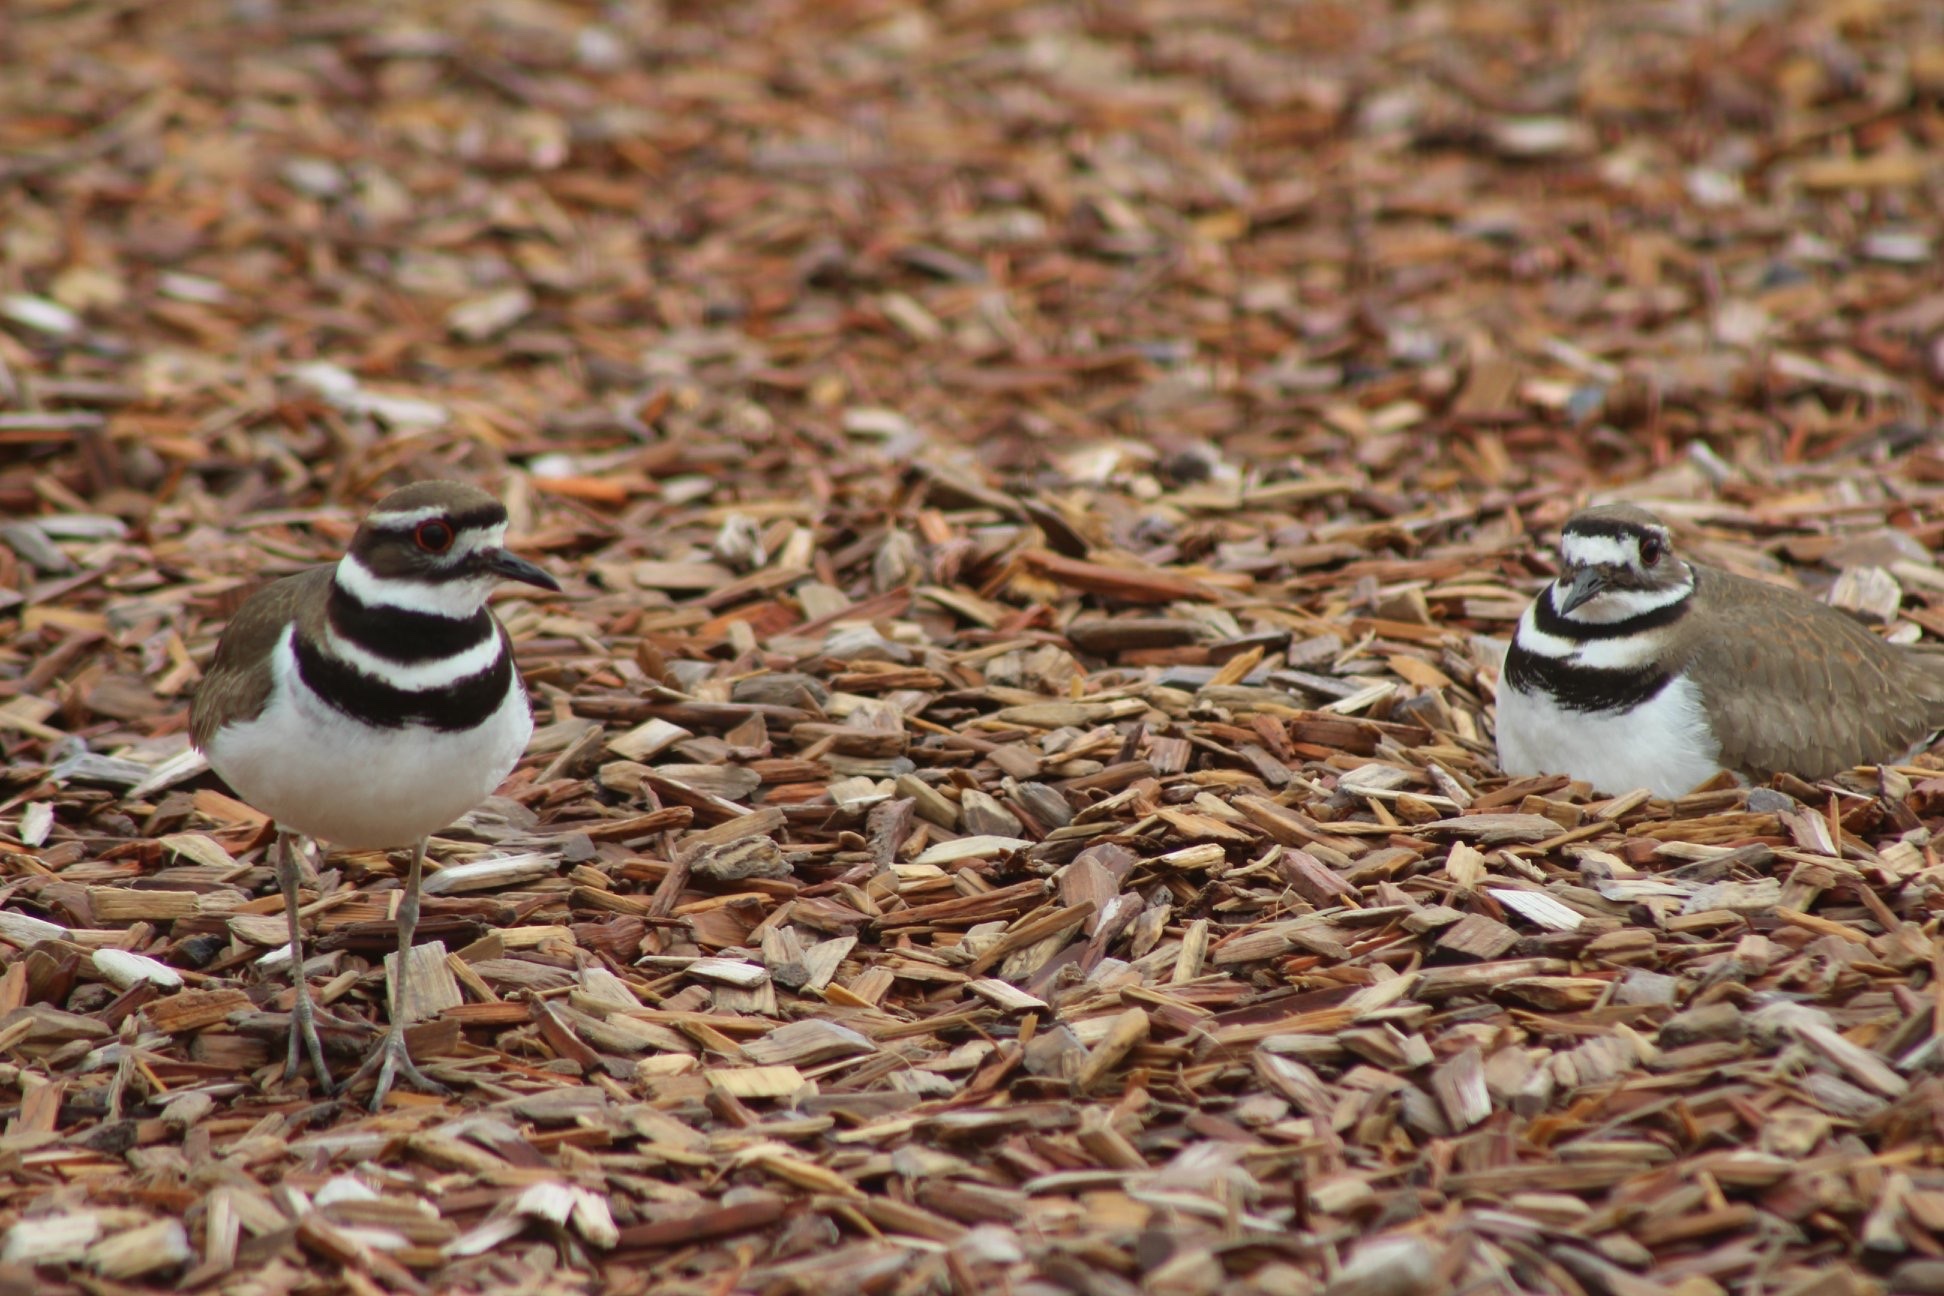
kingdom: Animalia
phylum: Chordata
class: Aves
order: Charadriiformes
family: Charadriidae
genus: Charadrius
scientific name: Charadrius vociferus
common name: Killdeer
